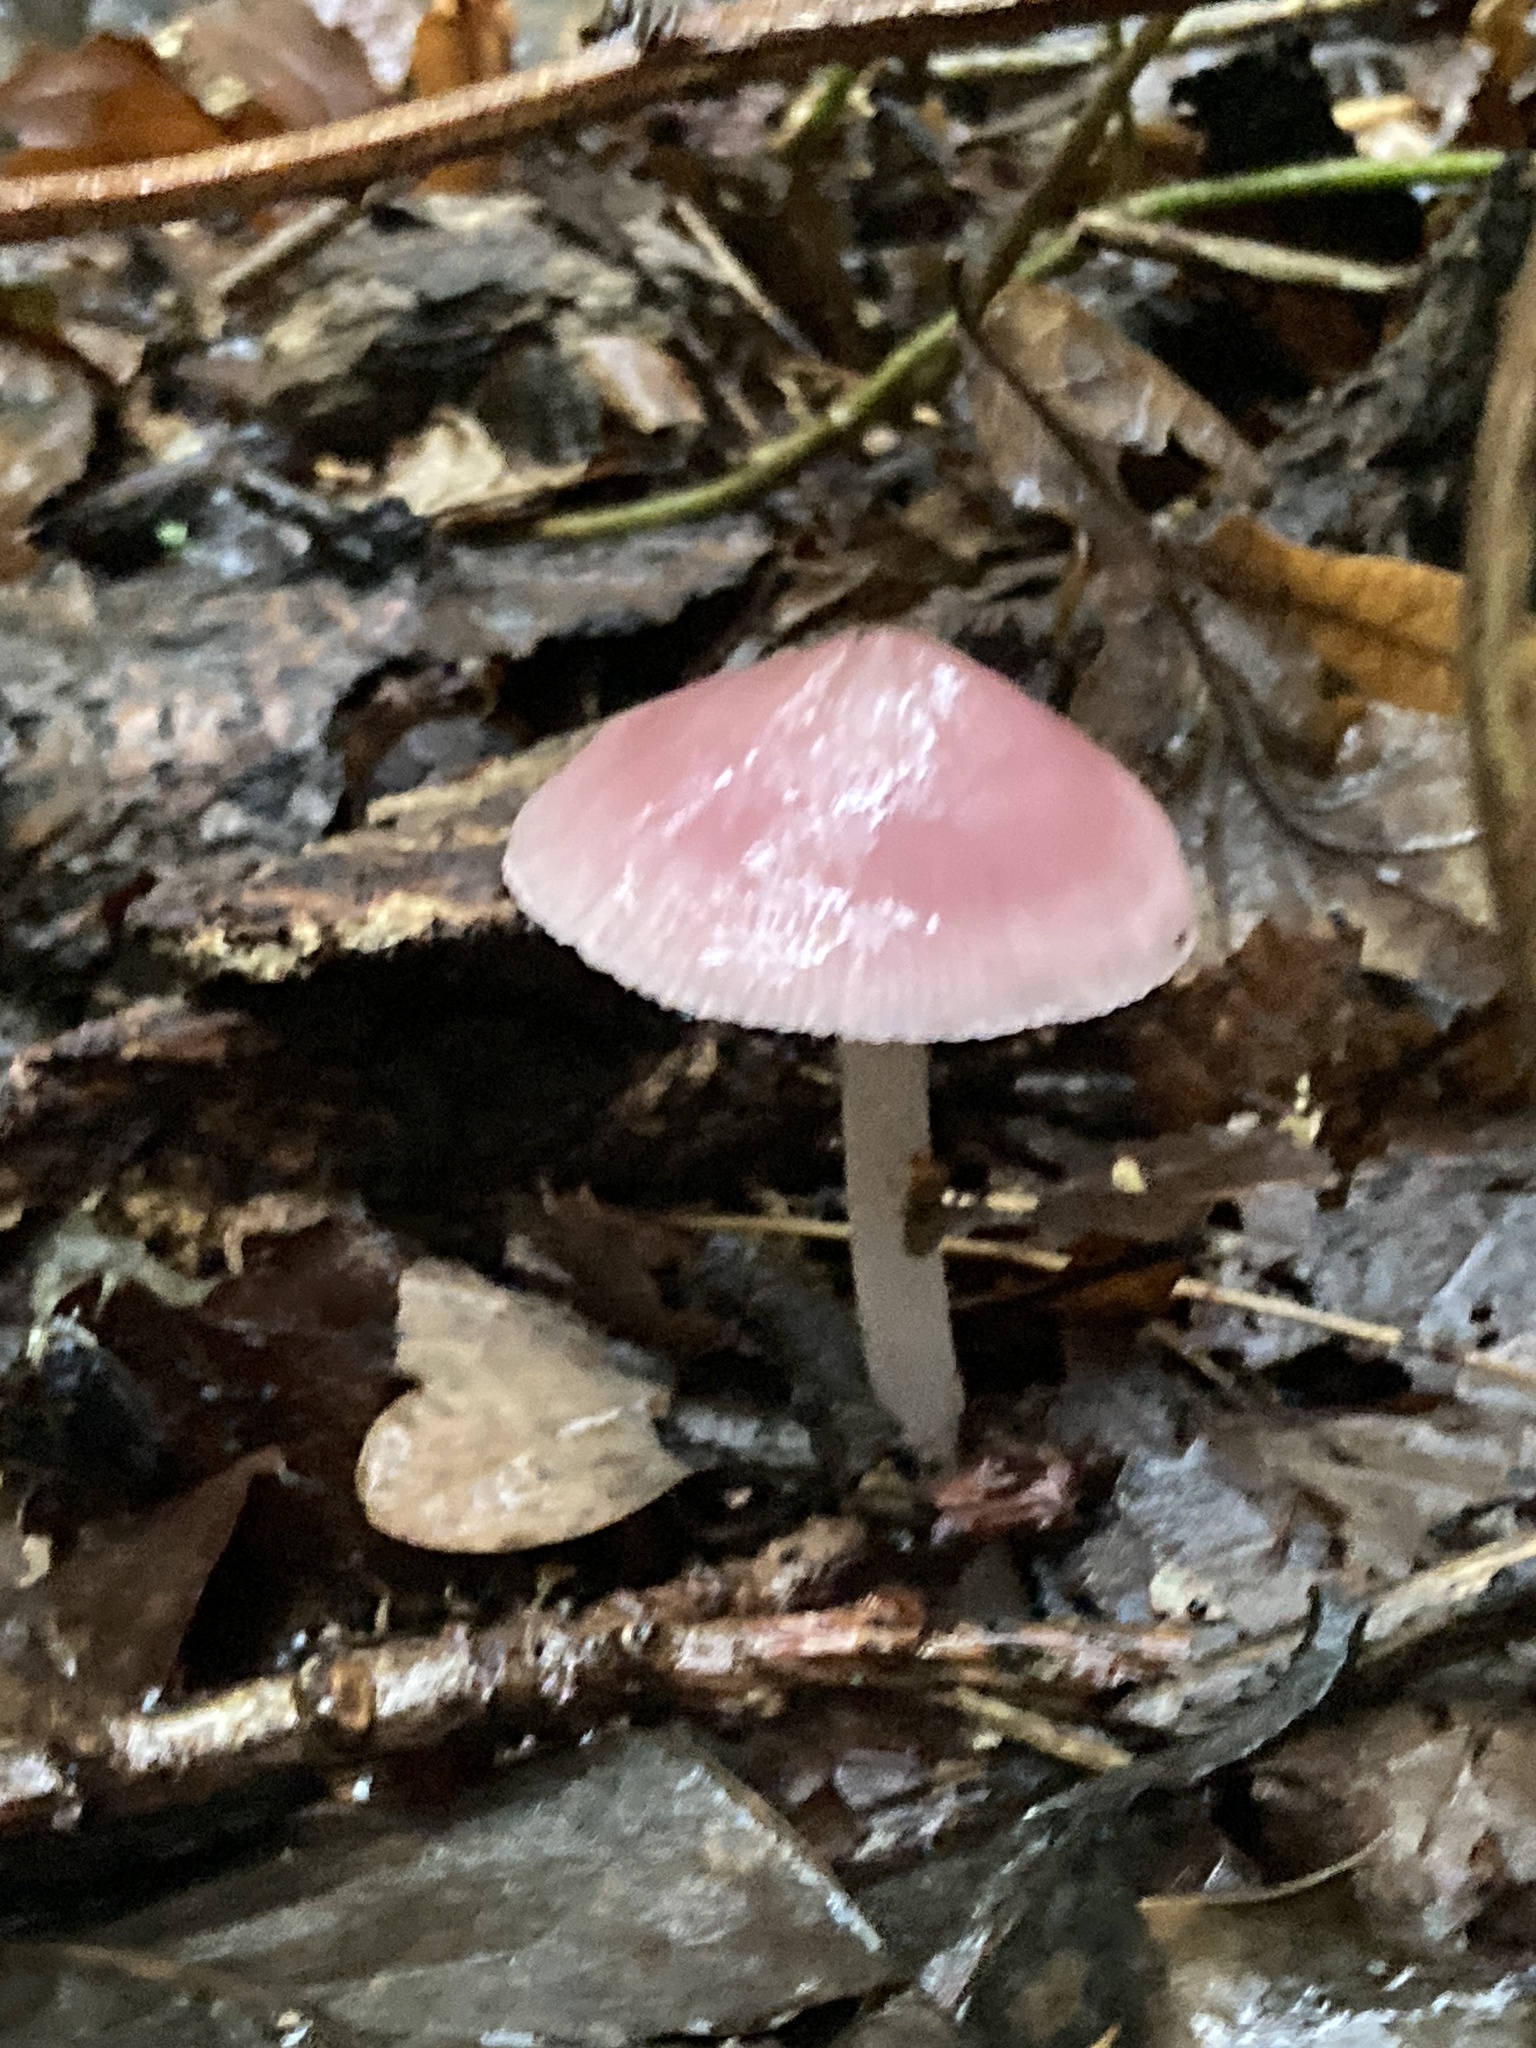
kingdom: Fungi
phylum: Basidiomycota
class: Agaricomycetes
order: Agaricales
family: Mycenaceae
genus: Mycena
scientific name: Mycena rosea
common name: Rosy bonnet
